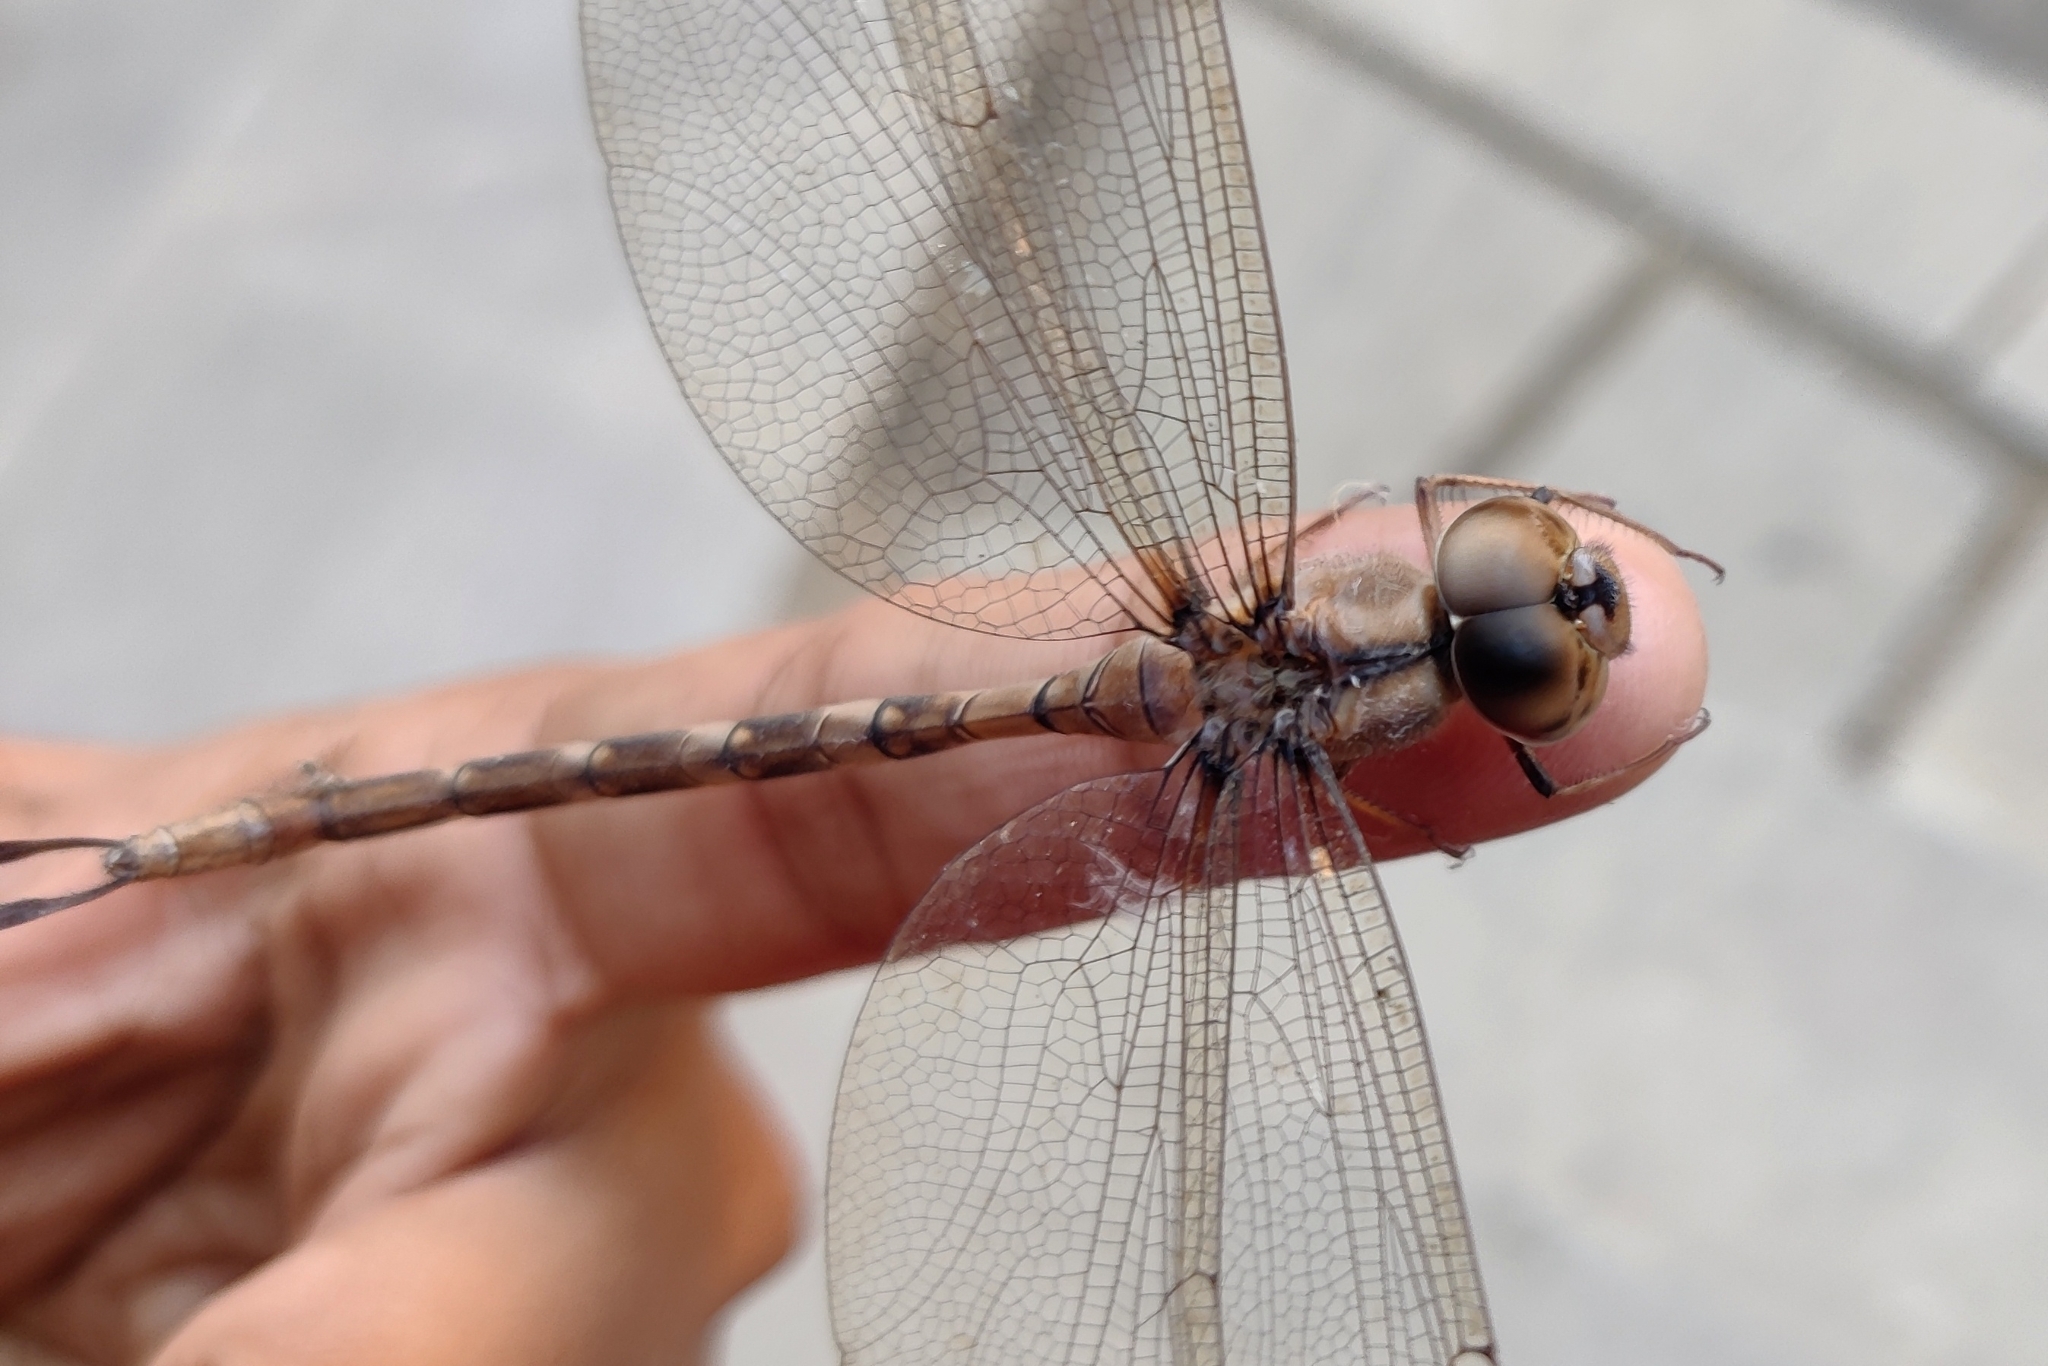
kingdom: Animalia
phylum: Arthropoda
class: Insecta
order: Odonata
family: Aeshnidae
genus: Gynacantha
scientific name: Gynacantha dravida
